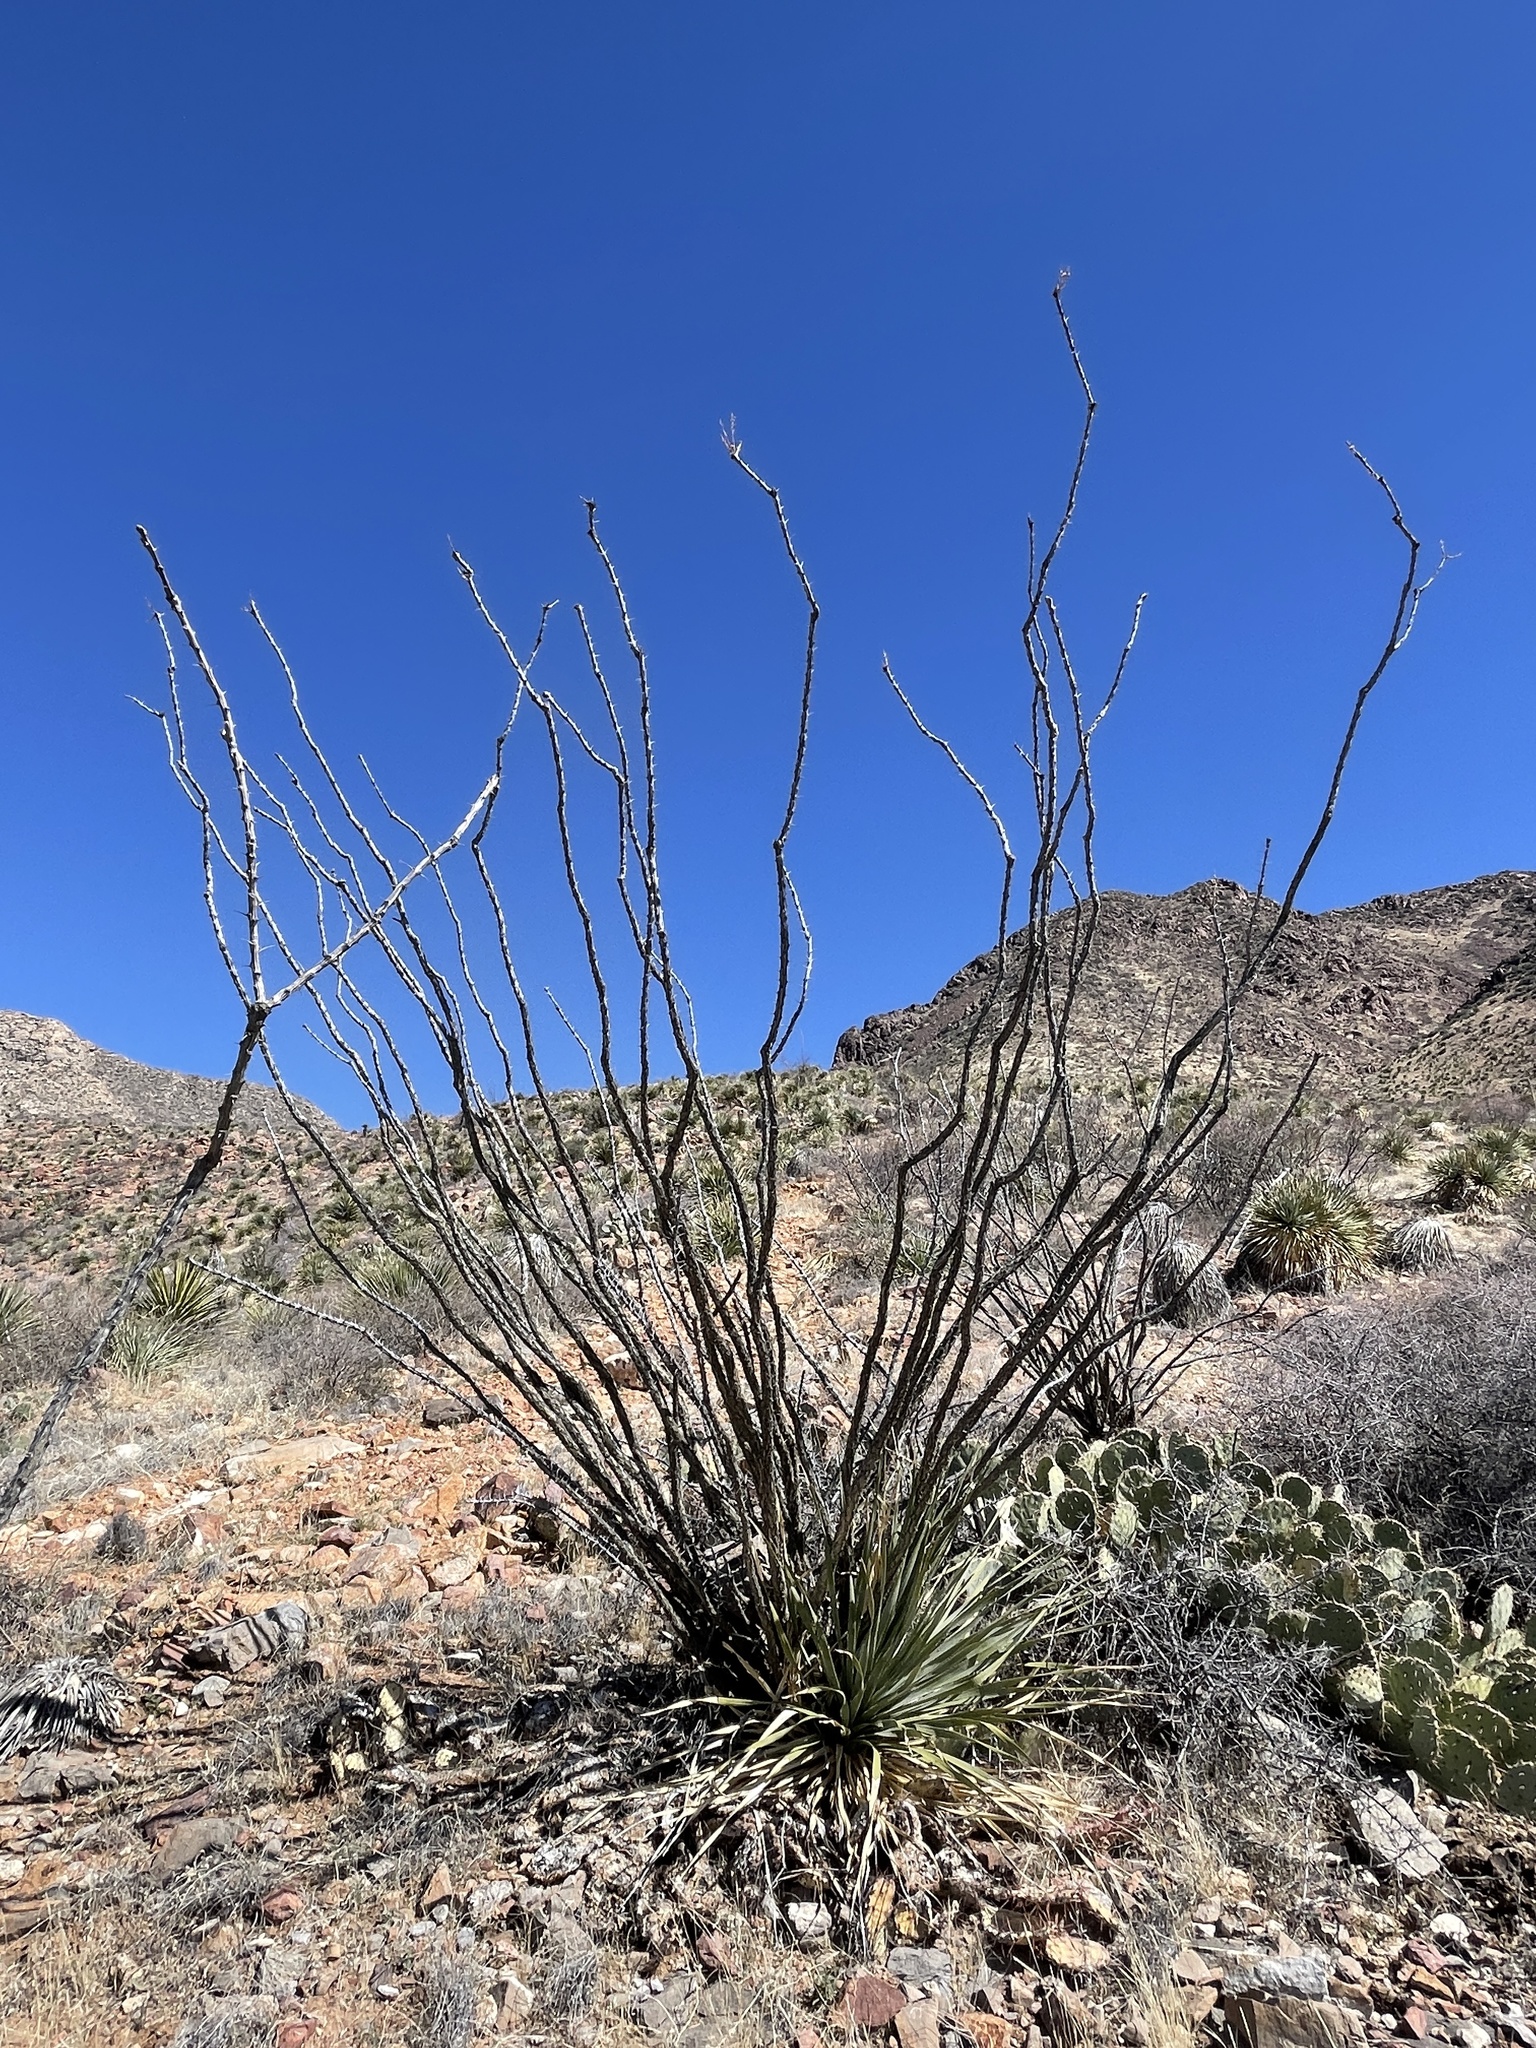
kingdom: Plantae
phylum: Tracheophyta
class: Magnoliopsida
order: Ericales
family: Fouquieriaceae
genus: Fouquieria
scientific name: Fouquieria splendens
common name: Vine-cactus
